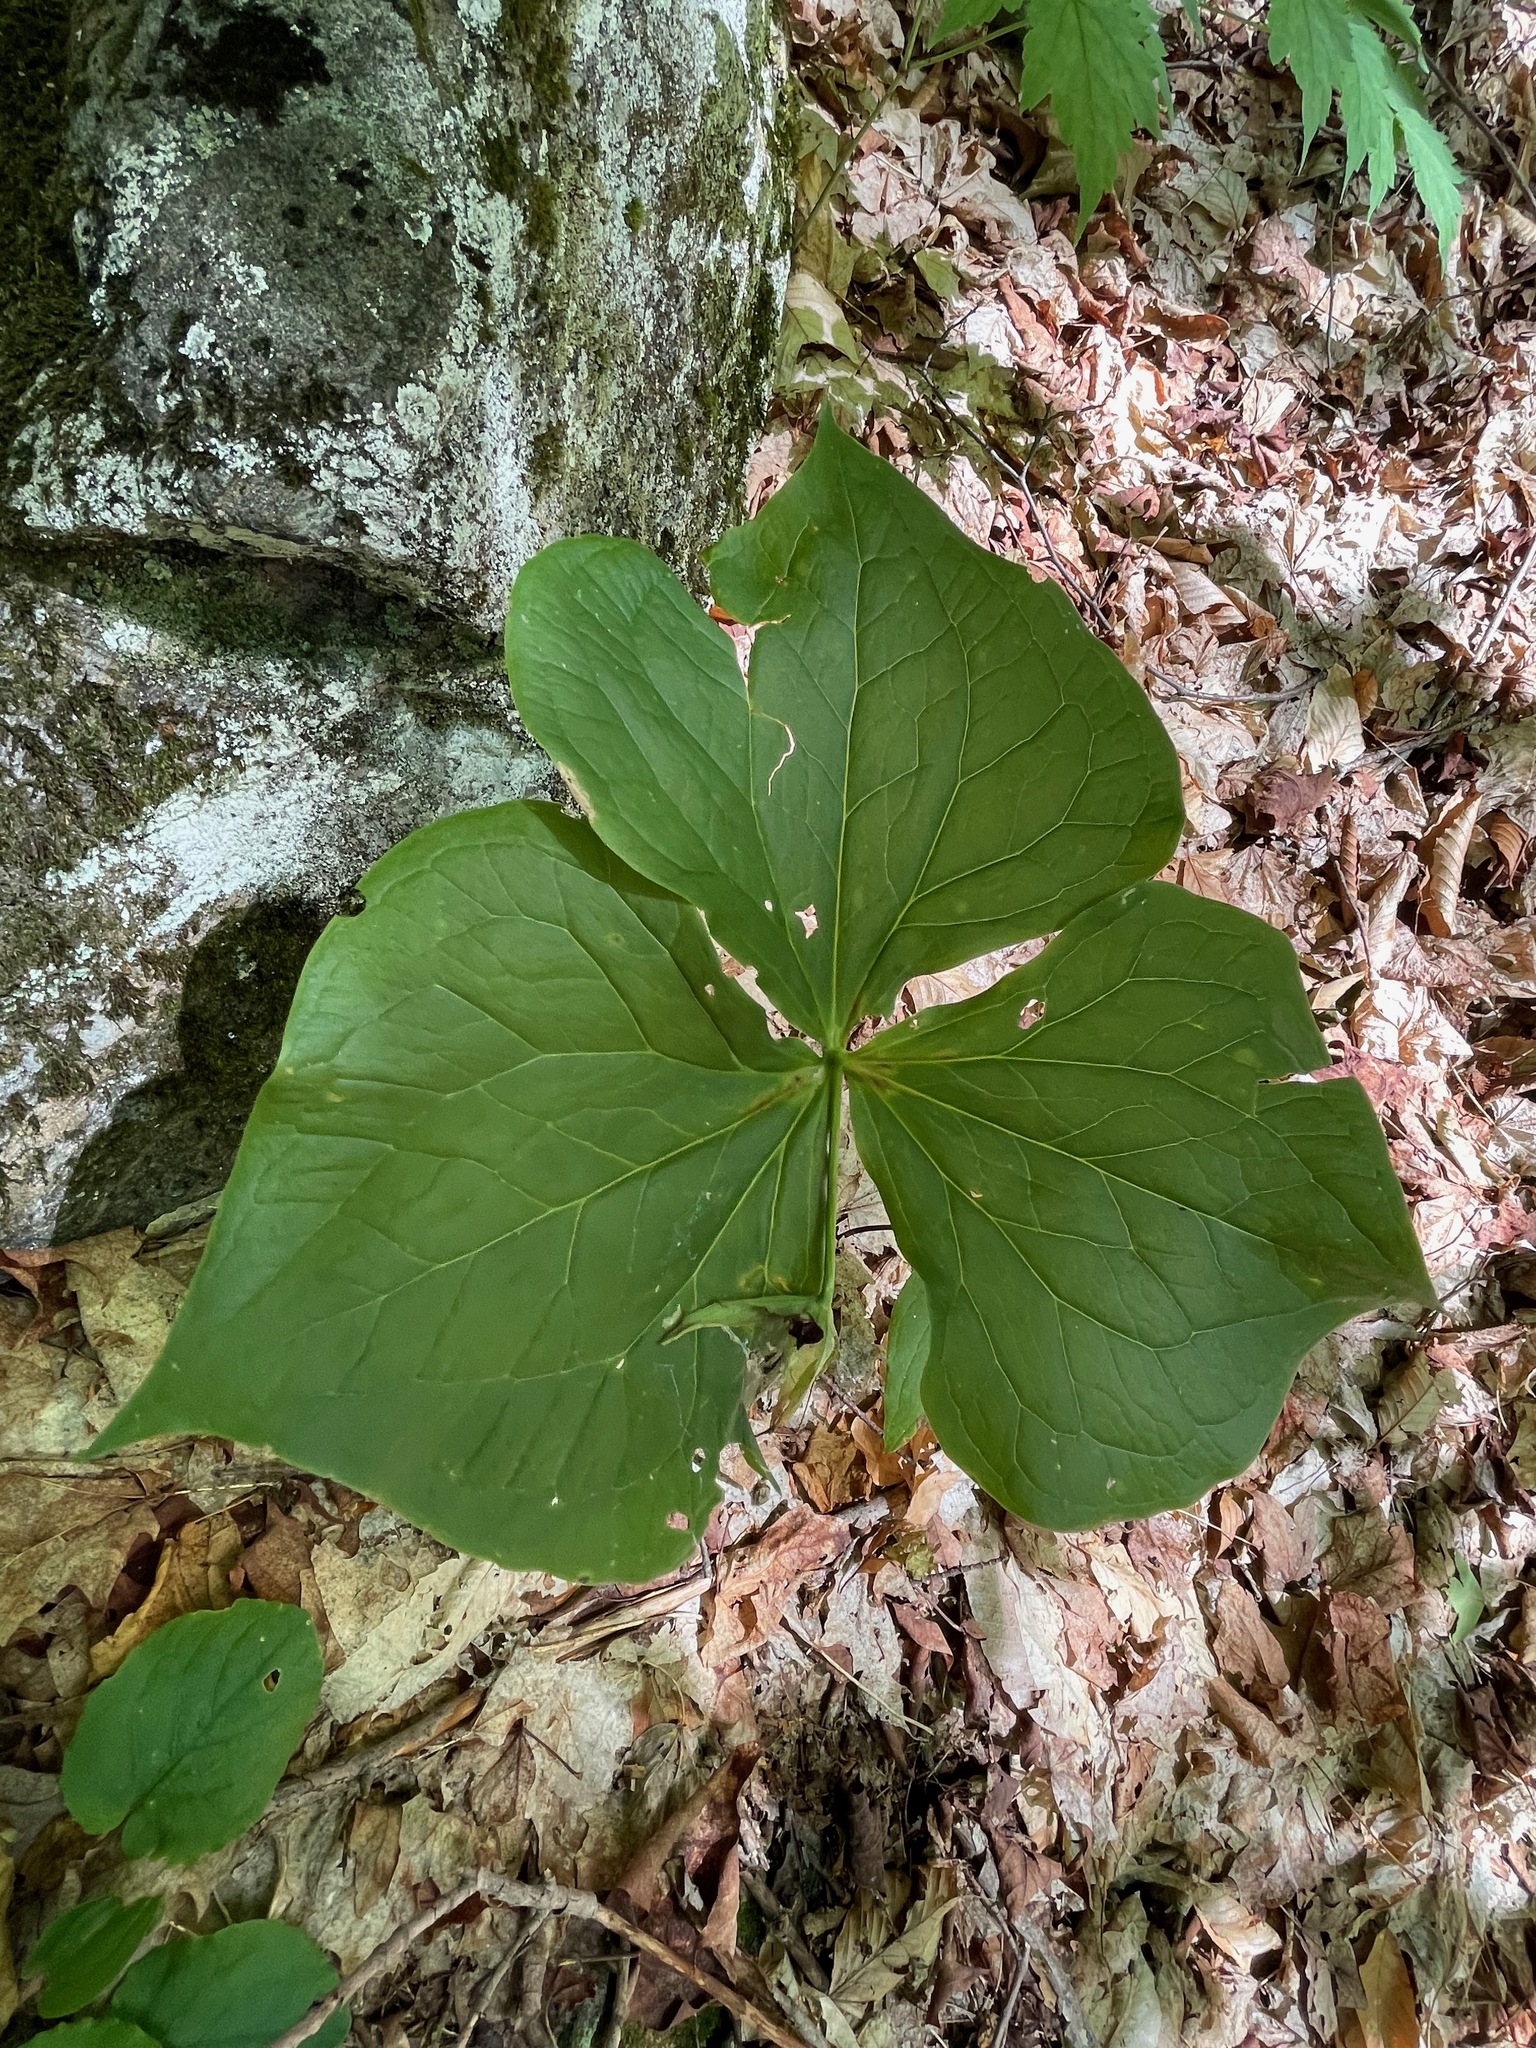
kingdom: Plantae
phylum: Tracheophyta
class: Liliopsida
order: Liliales
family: Melanthiaceae
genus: Trillium
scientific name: Trillium erectum
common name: Purple trillium
